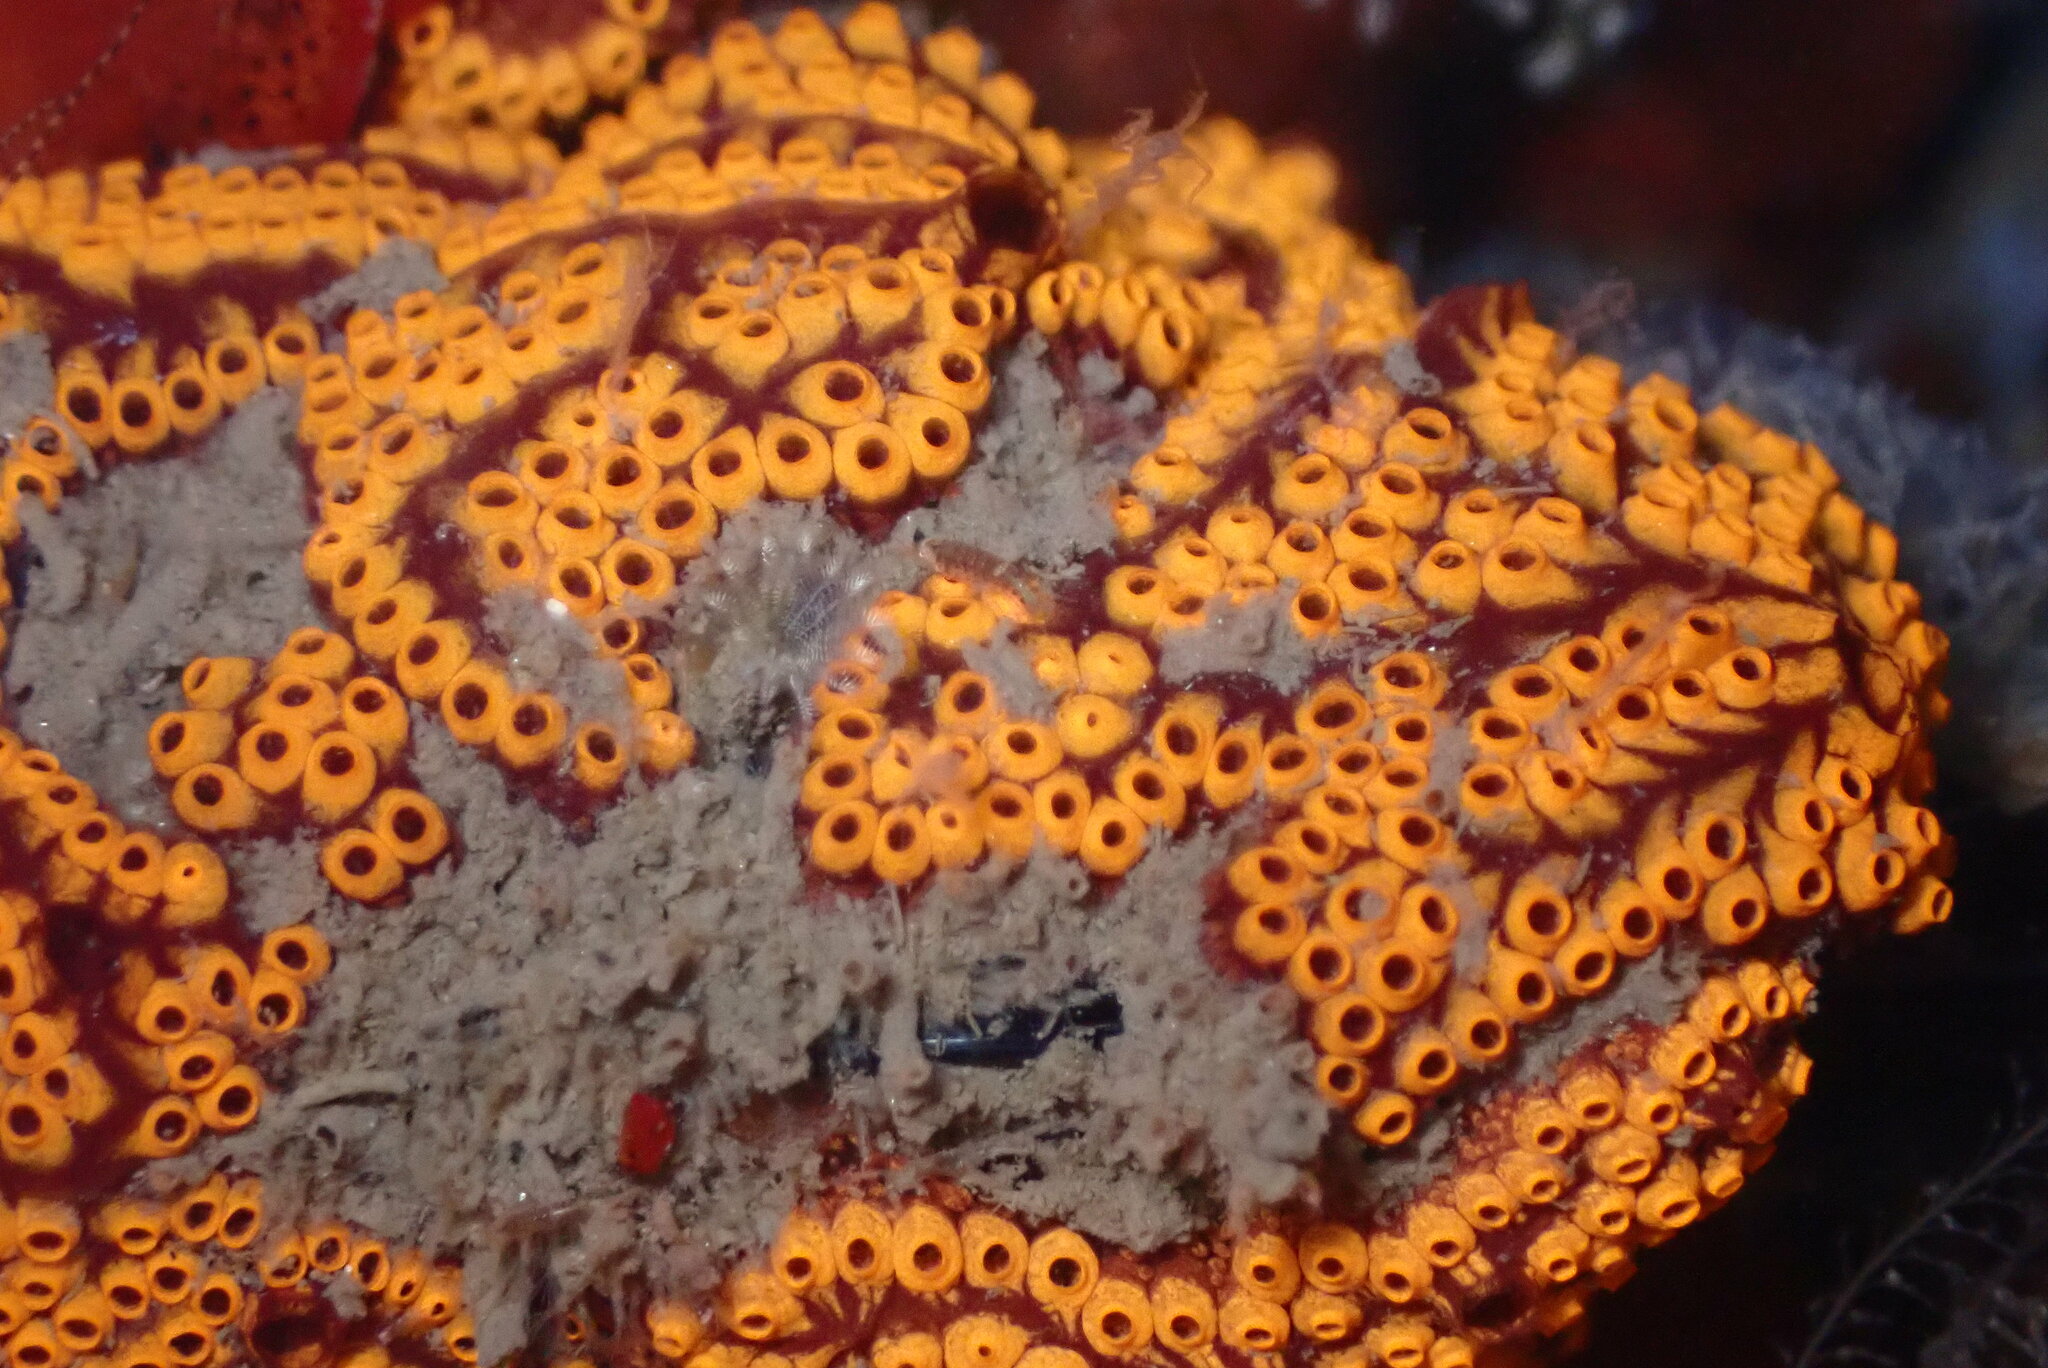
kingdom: Animalia
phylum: Chordata
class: Ascidiacea
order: Stolidobranchia
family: Styelidae
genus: Botrylloides
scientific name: Botrylloides diegensis
